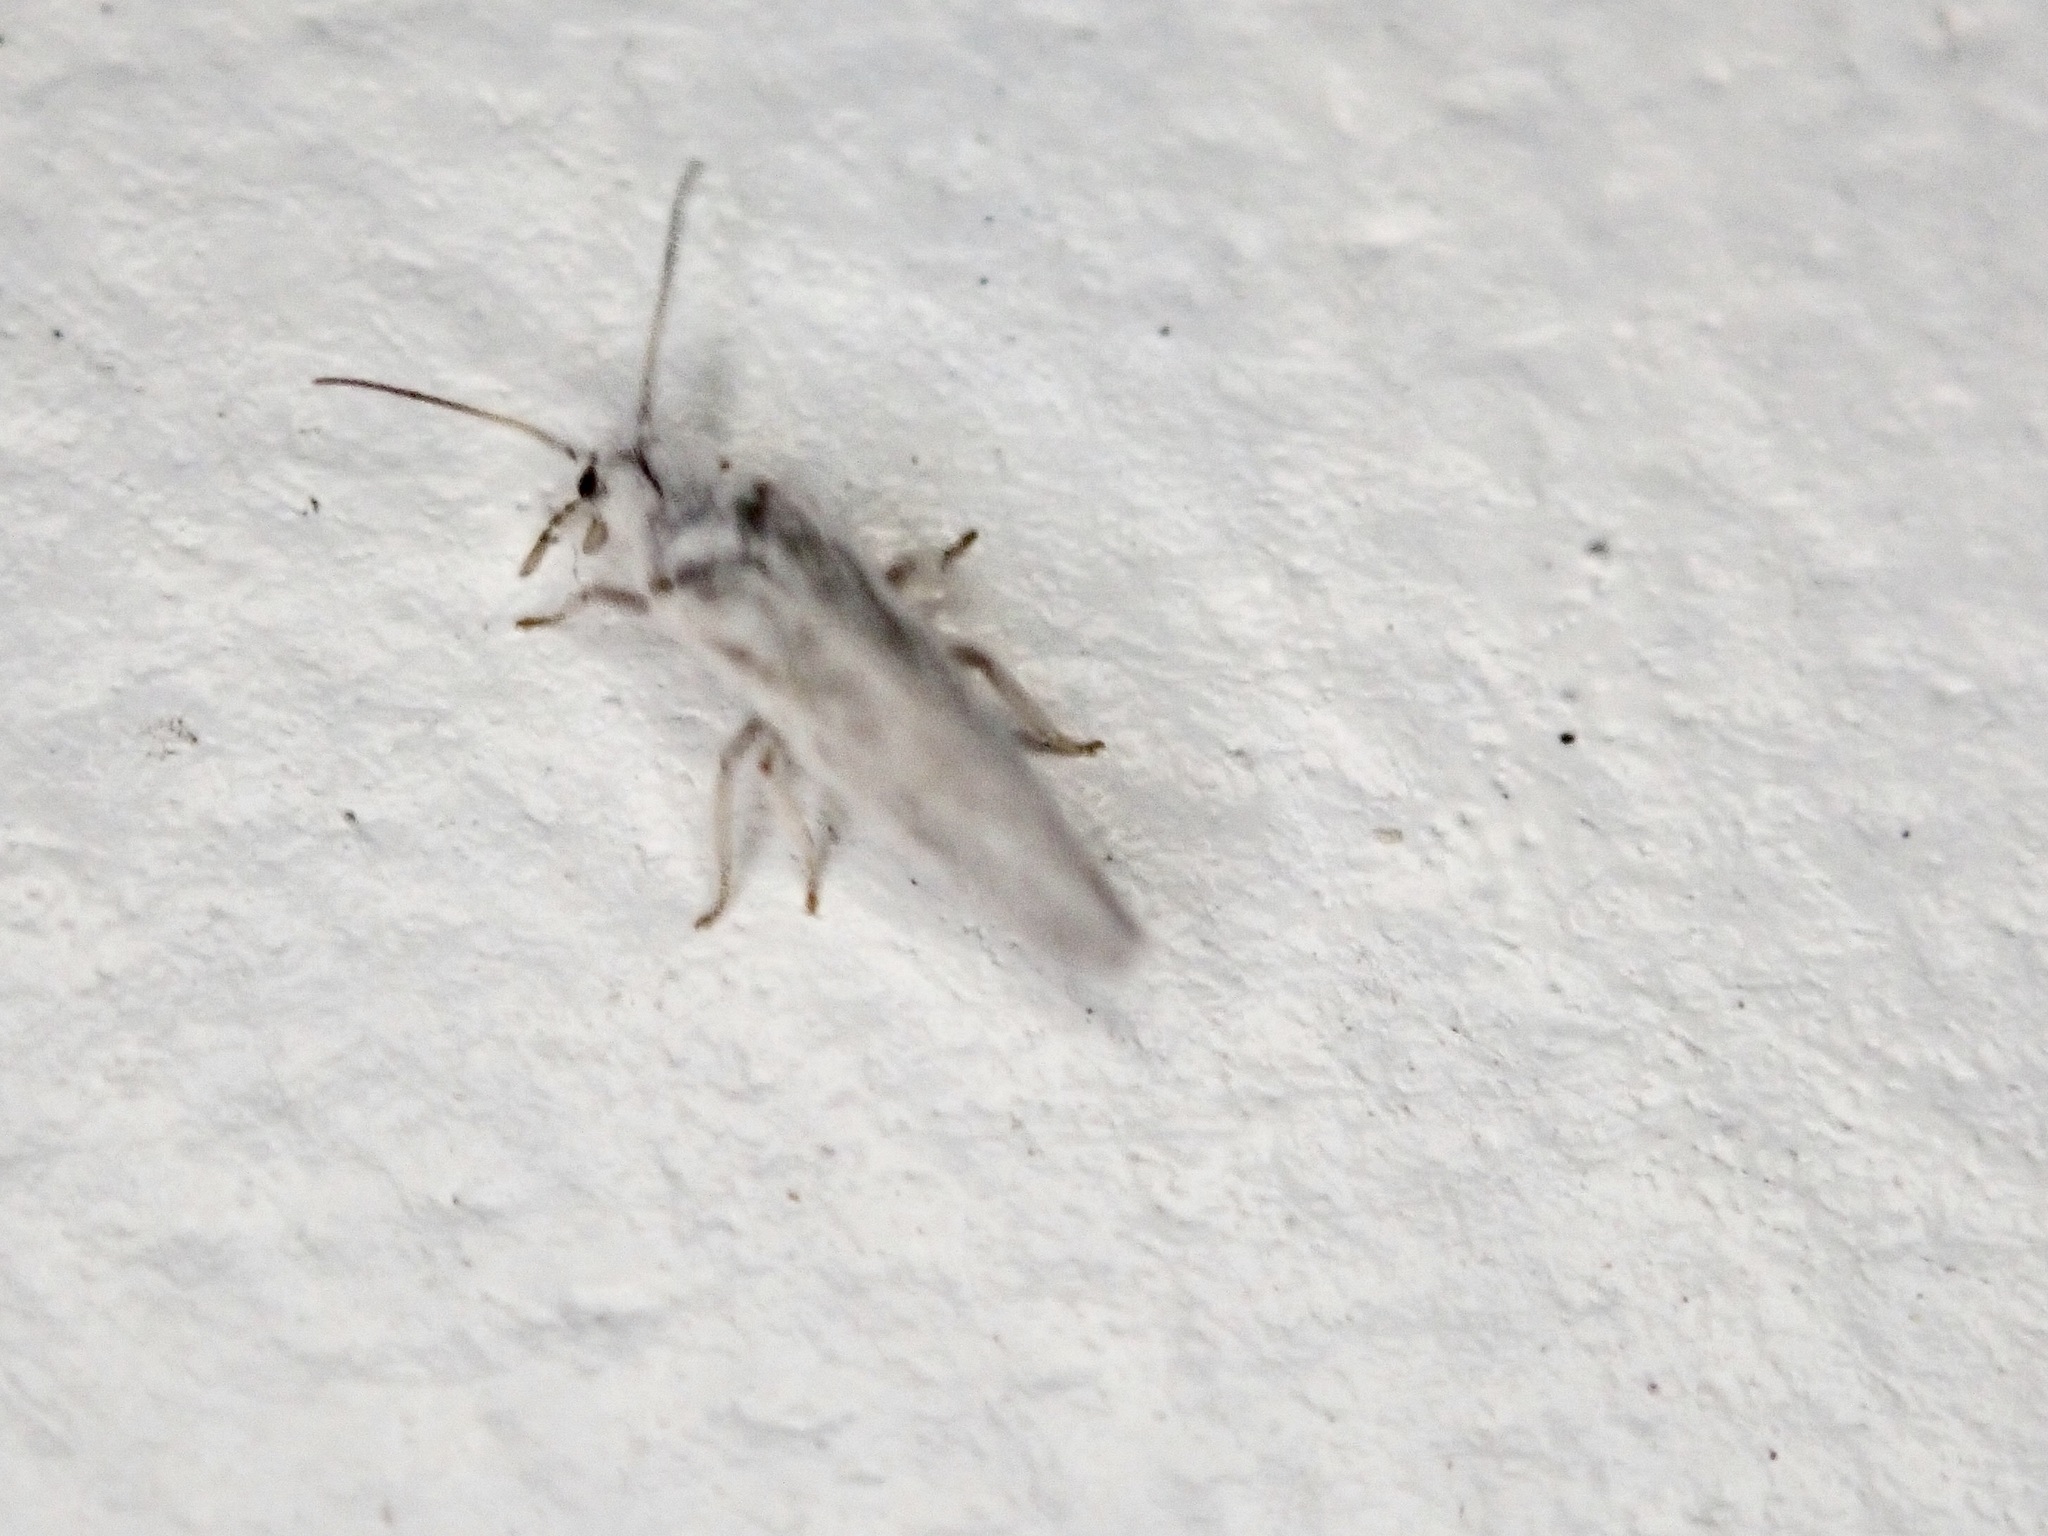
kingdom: Animalia
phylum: Arthropoda
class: Insecta
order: Neuroptera
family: Coniopterygidae
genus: Cryptoscenea
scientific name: Cryptoscenea australiensis
